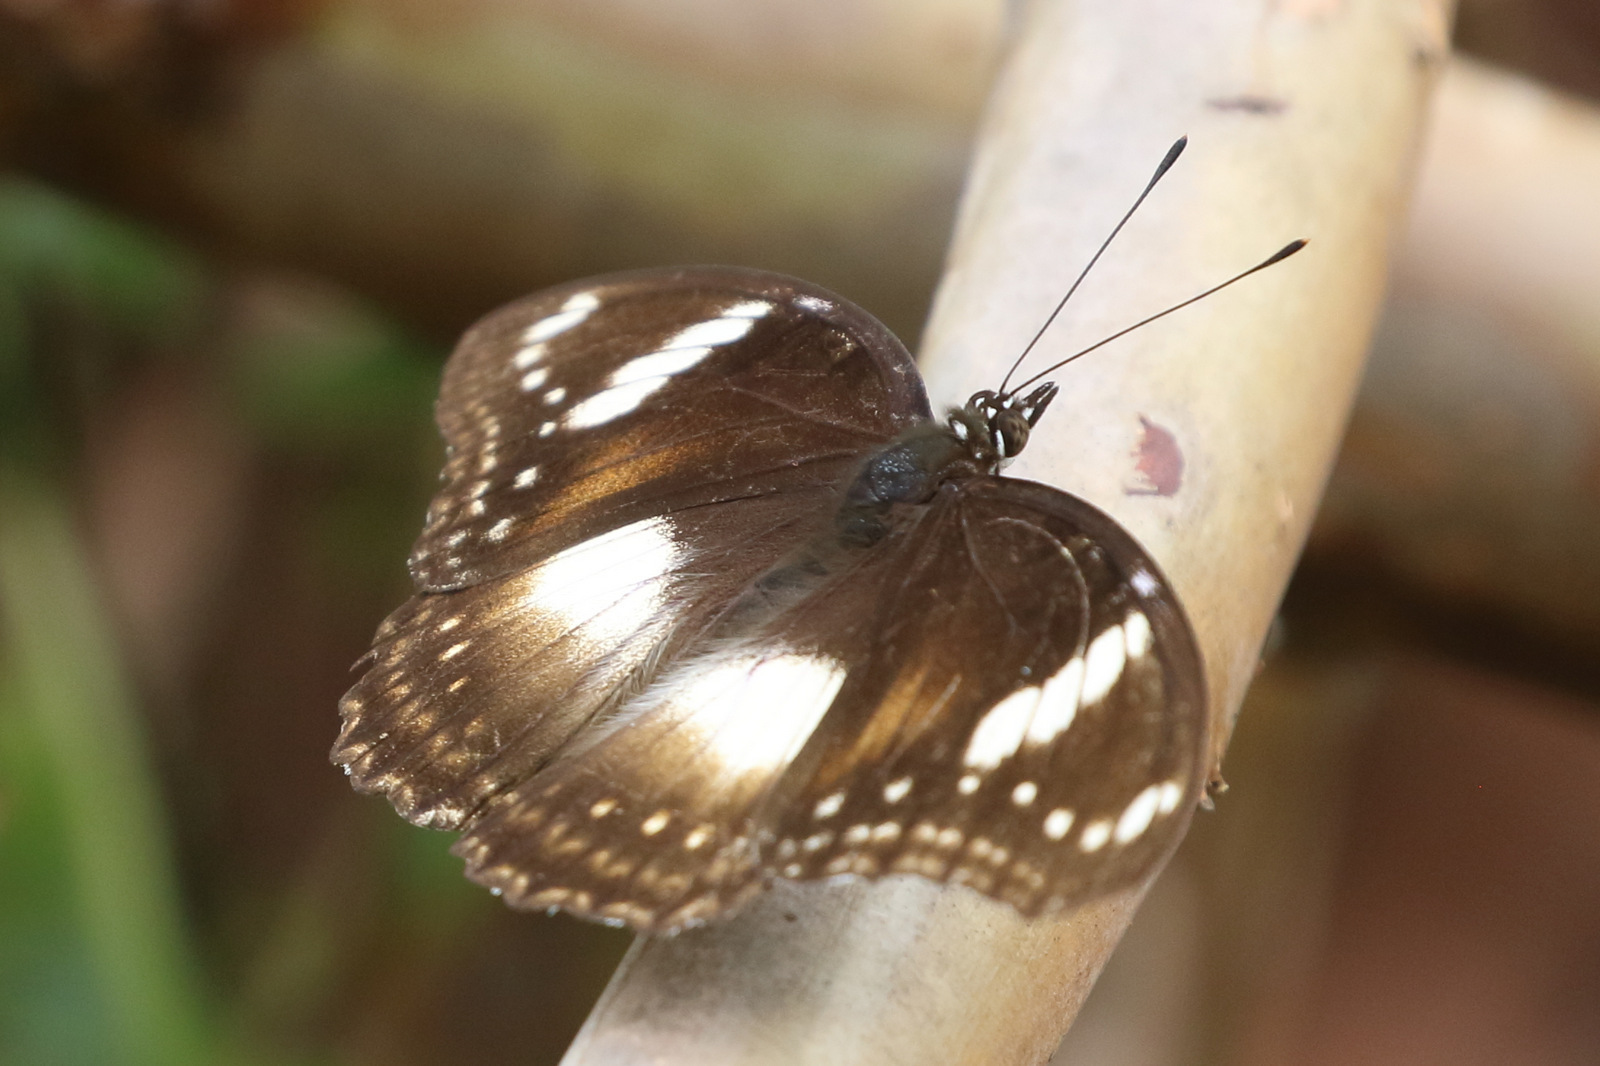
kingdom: Animalia
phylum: Arthropoda
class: Insecta
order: Lepidoptera
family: Nymphalidae
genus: Hypolimnas
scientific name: Hypolimnas bolina
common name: Great eggfly
